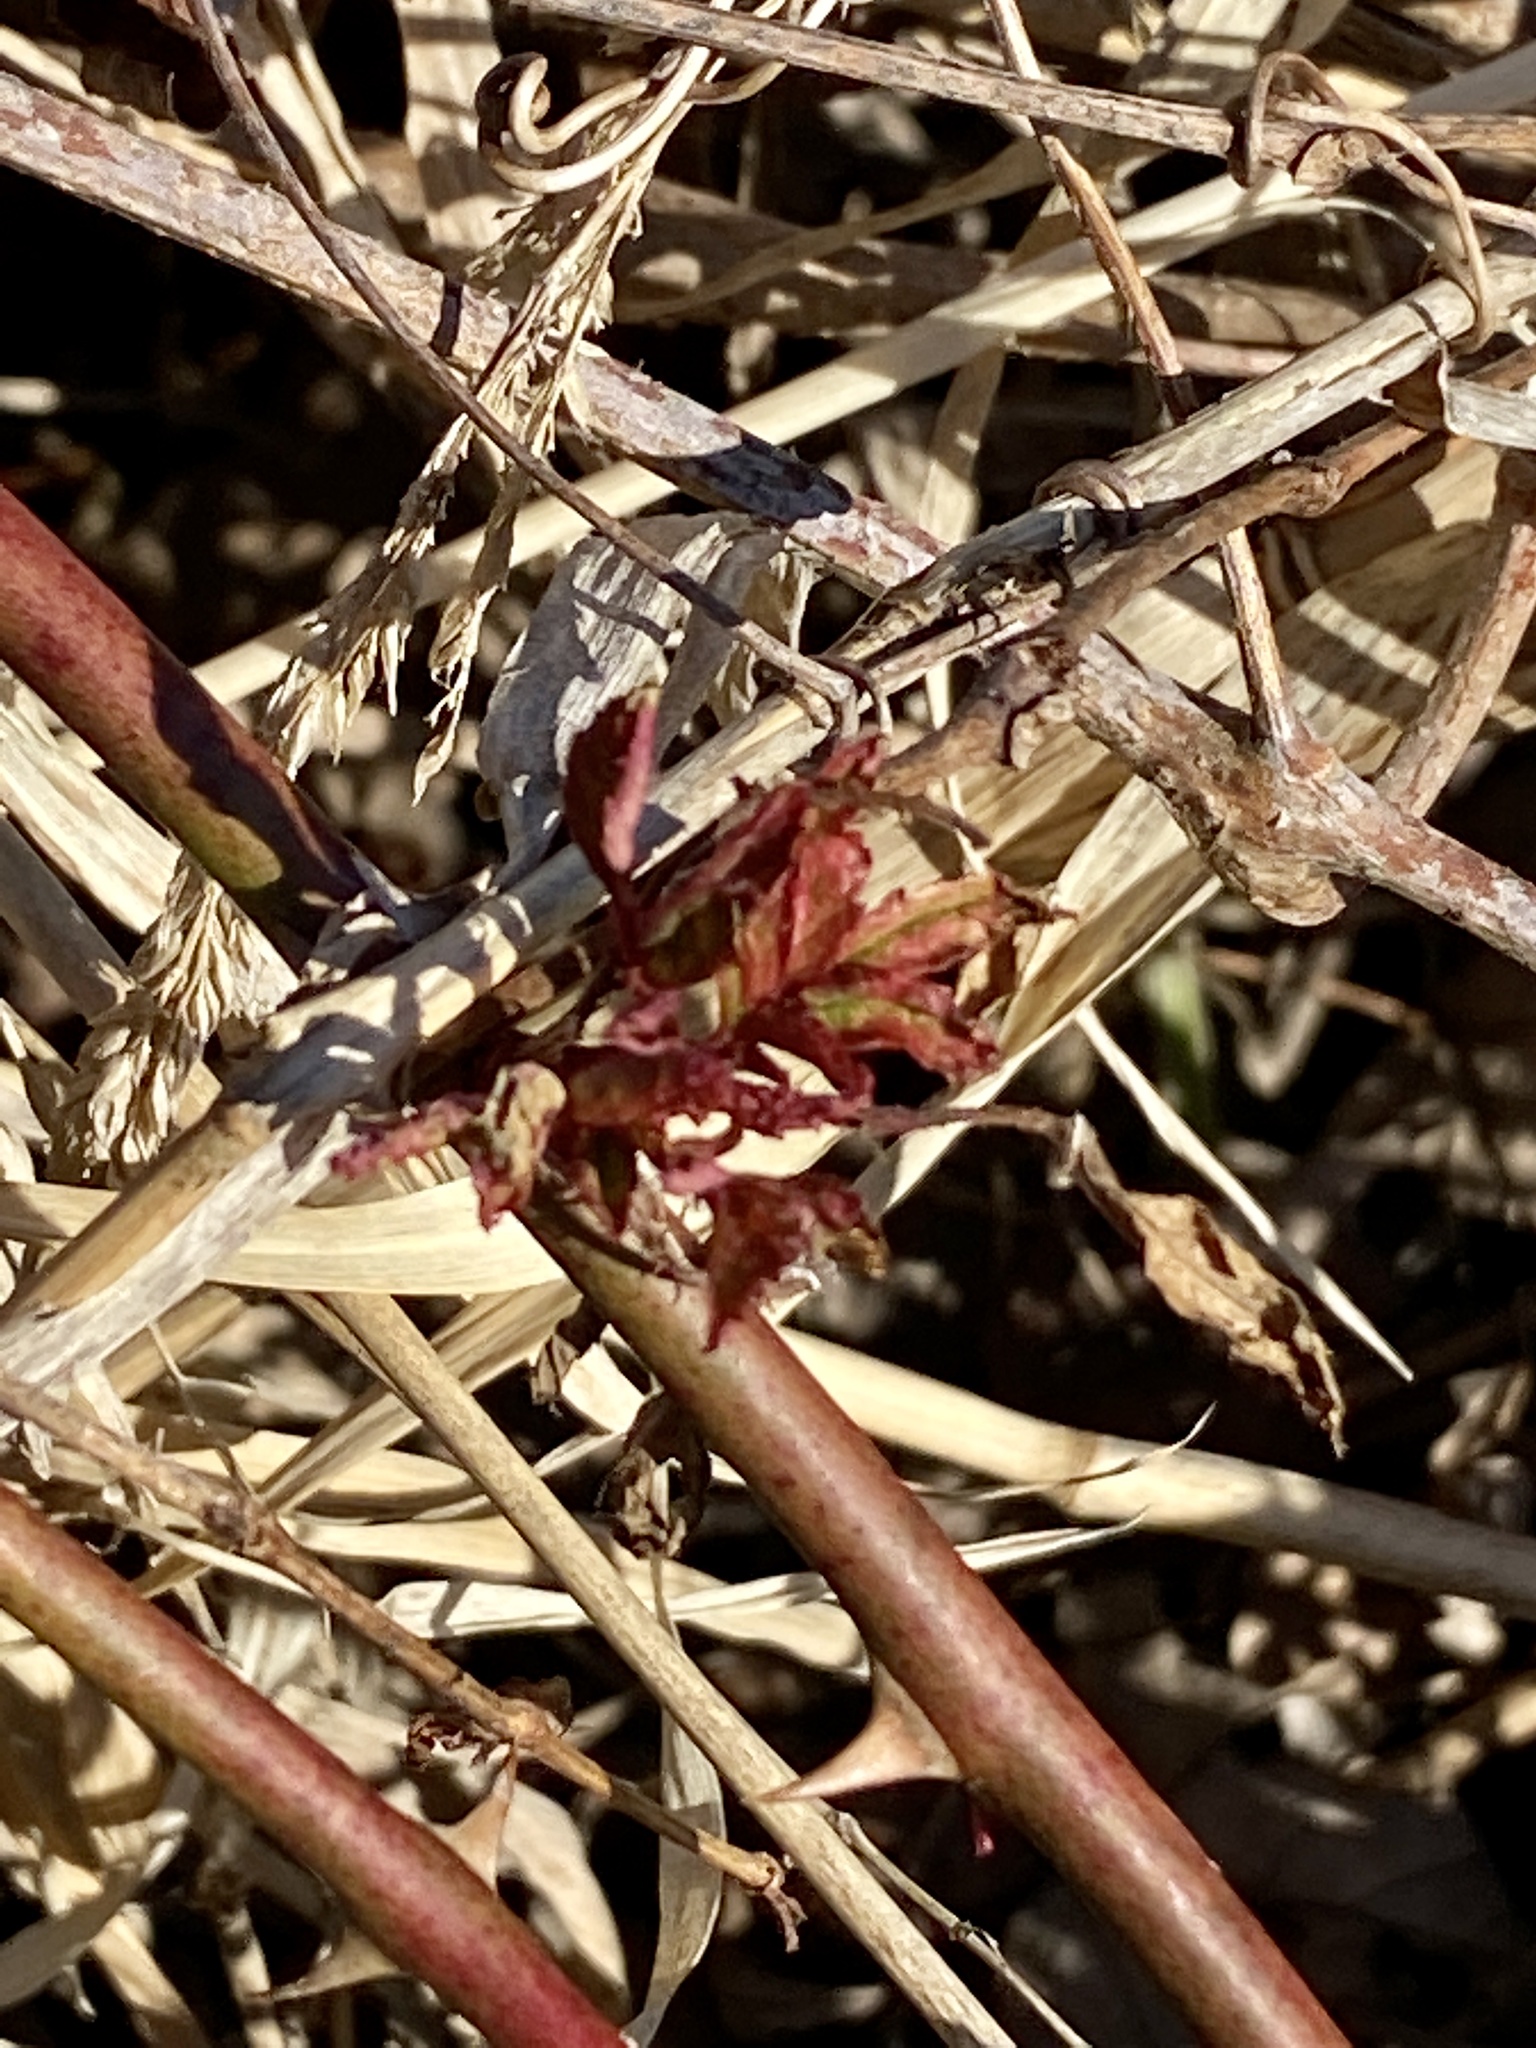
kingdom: Viruses
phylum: Negarnaviricota
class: Ellioviricetes
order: Bunyavirales
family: Fimoviridae
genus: Emaravirus
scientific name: Emaravirus rosae
